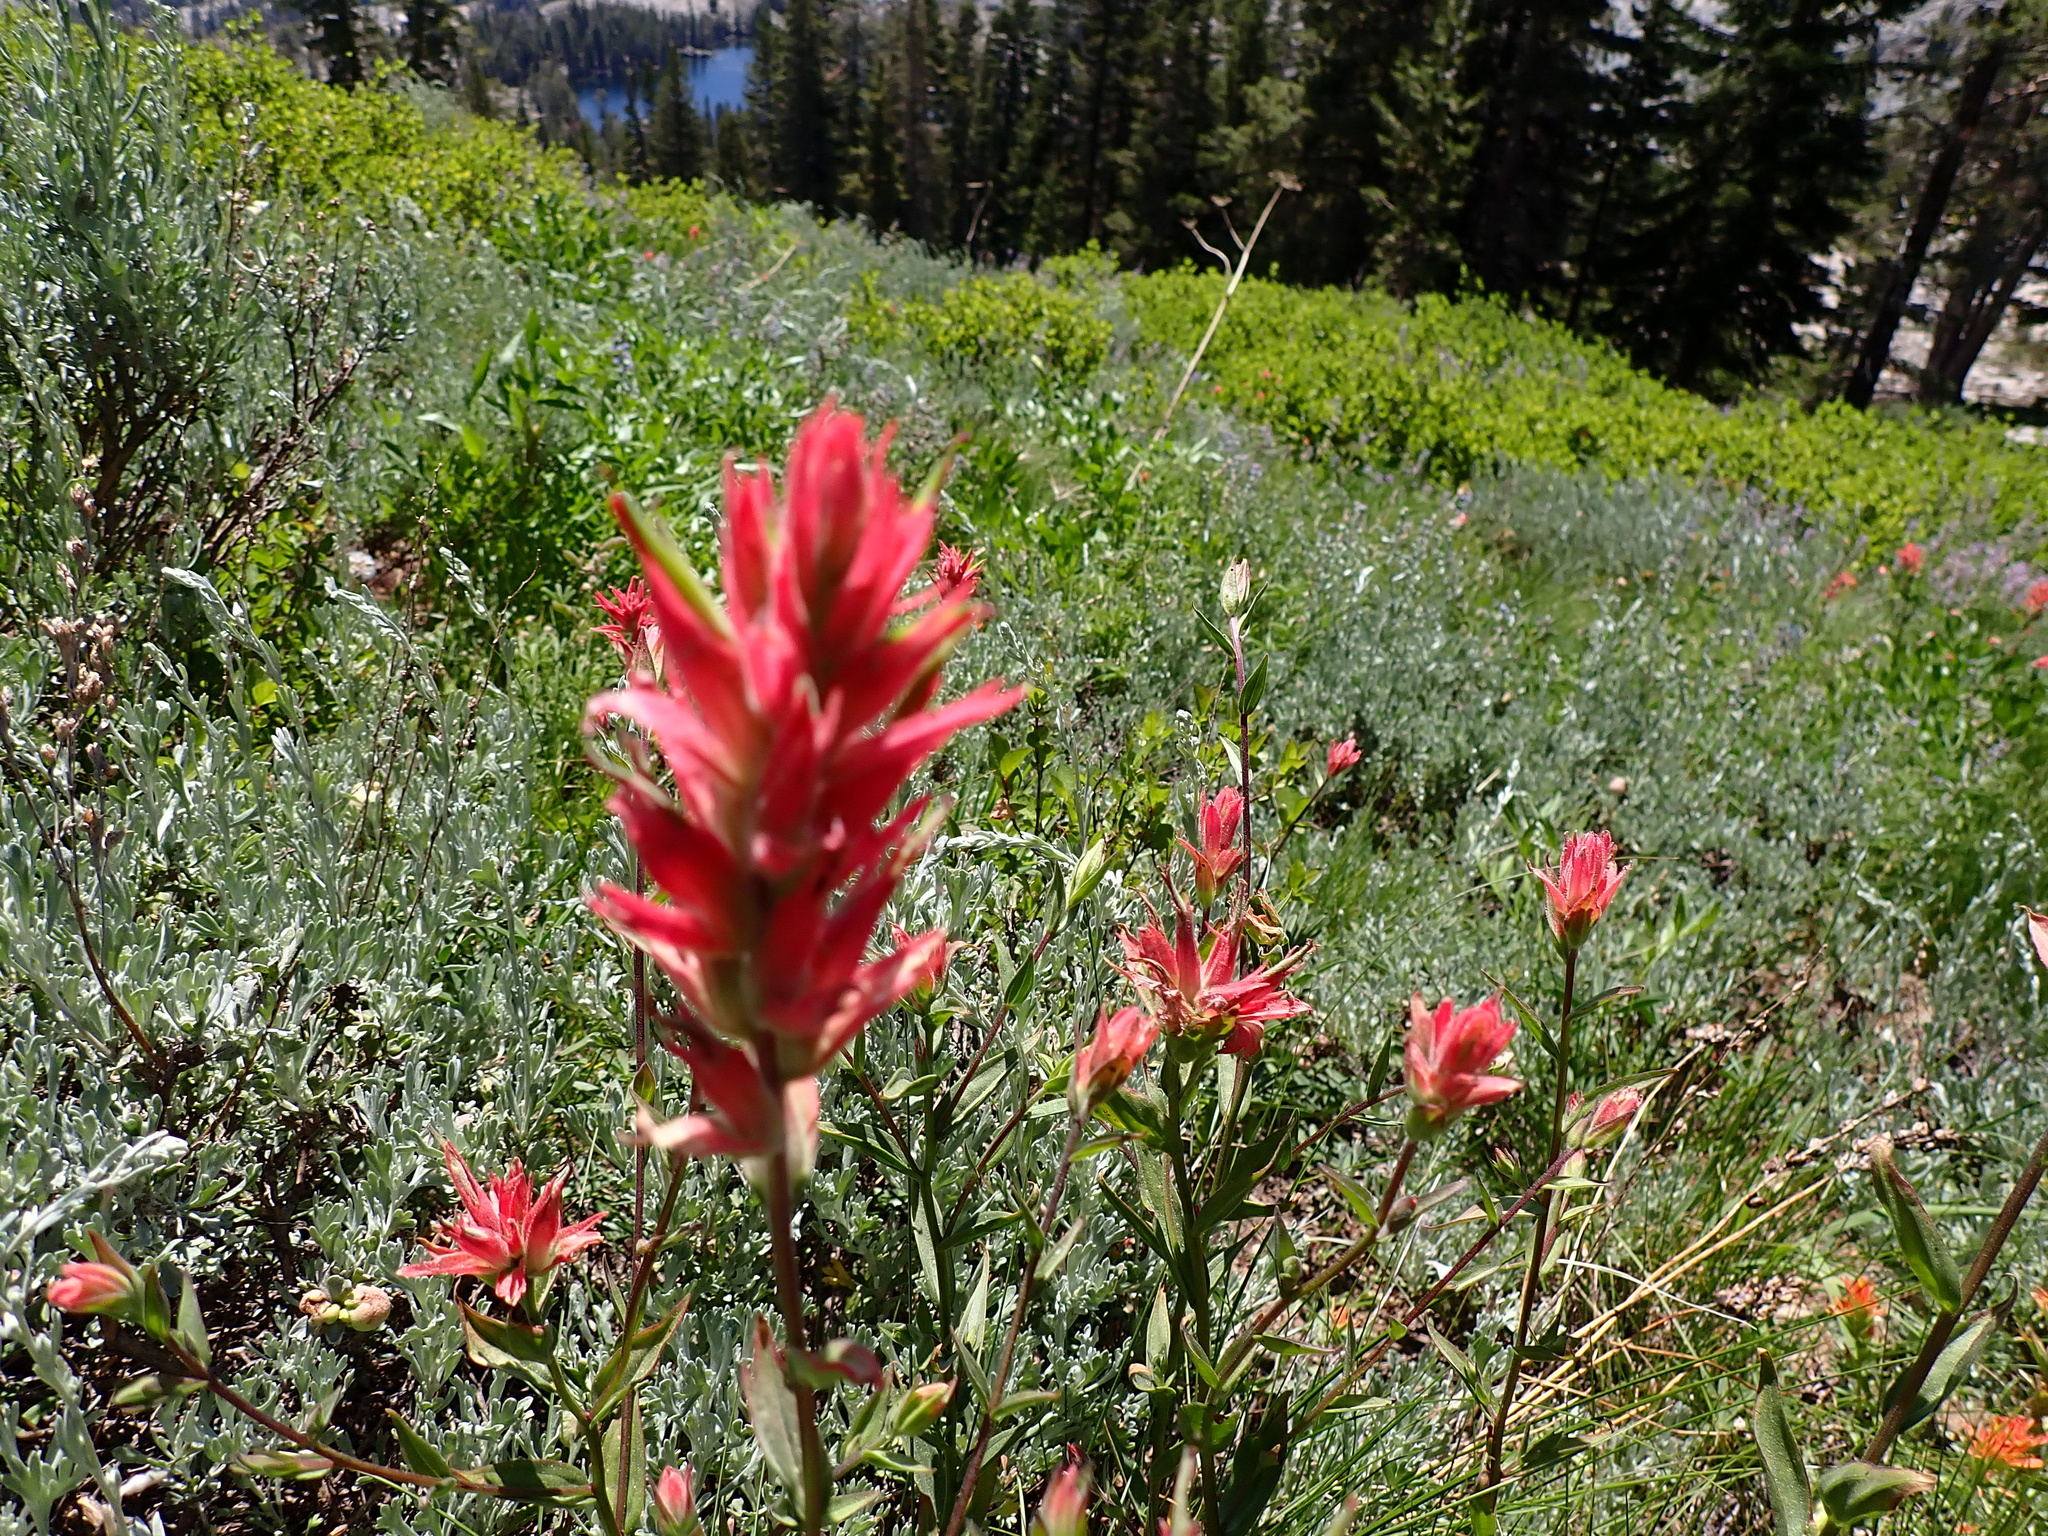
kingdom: Plantae
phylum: Tracheophyta
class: Magnoliopsida
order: Lamiales
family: Orobanchaceae
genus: Castilleja
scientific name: Castilleja miniata
